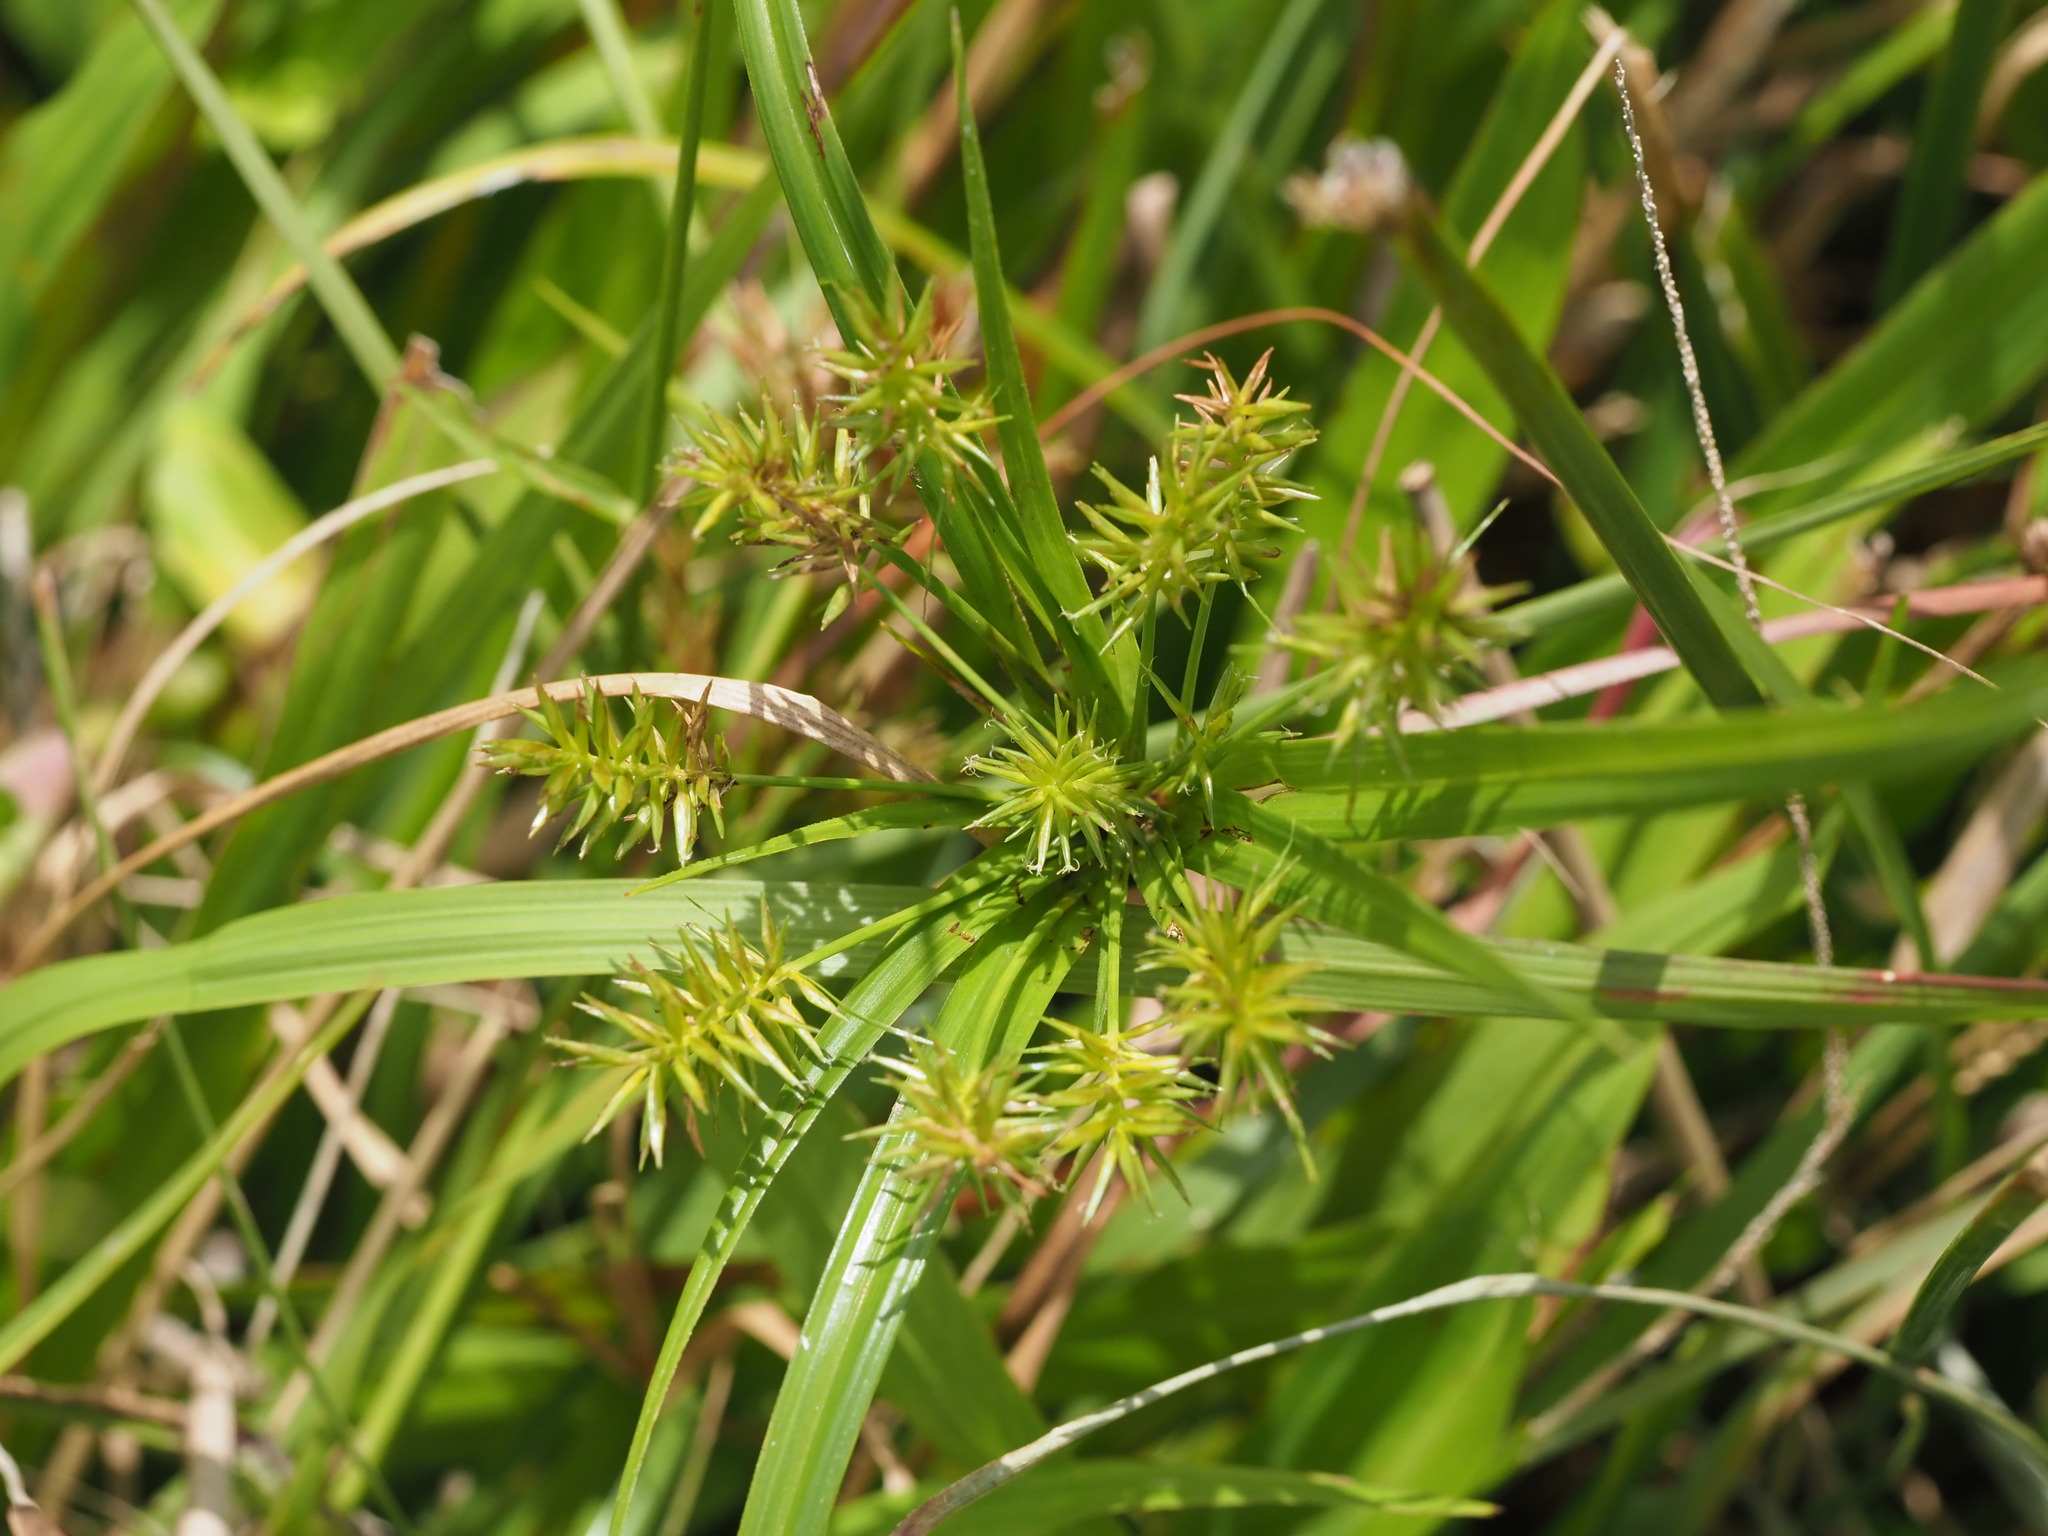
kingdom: Plantae
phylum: Tracheophyta
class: Liliopsida
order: Poales
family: Cyperaceae
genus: Cyperus
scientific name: Cyperus meyenianus
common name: Meyen's flatsedge
